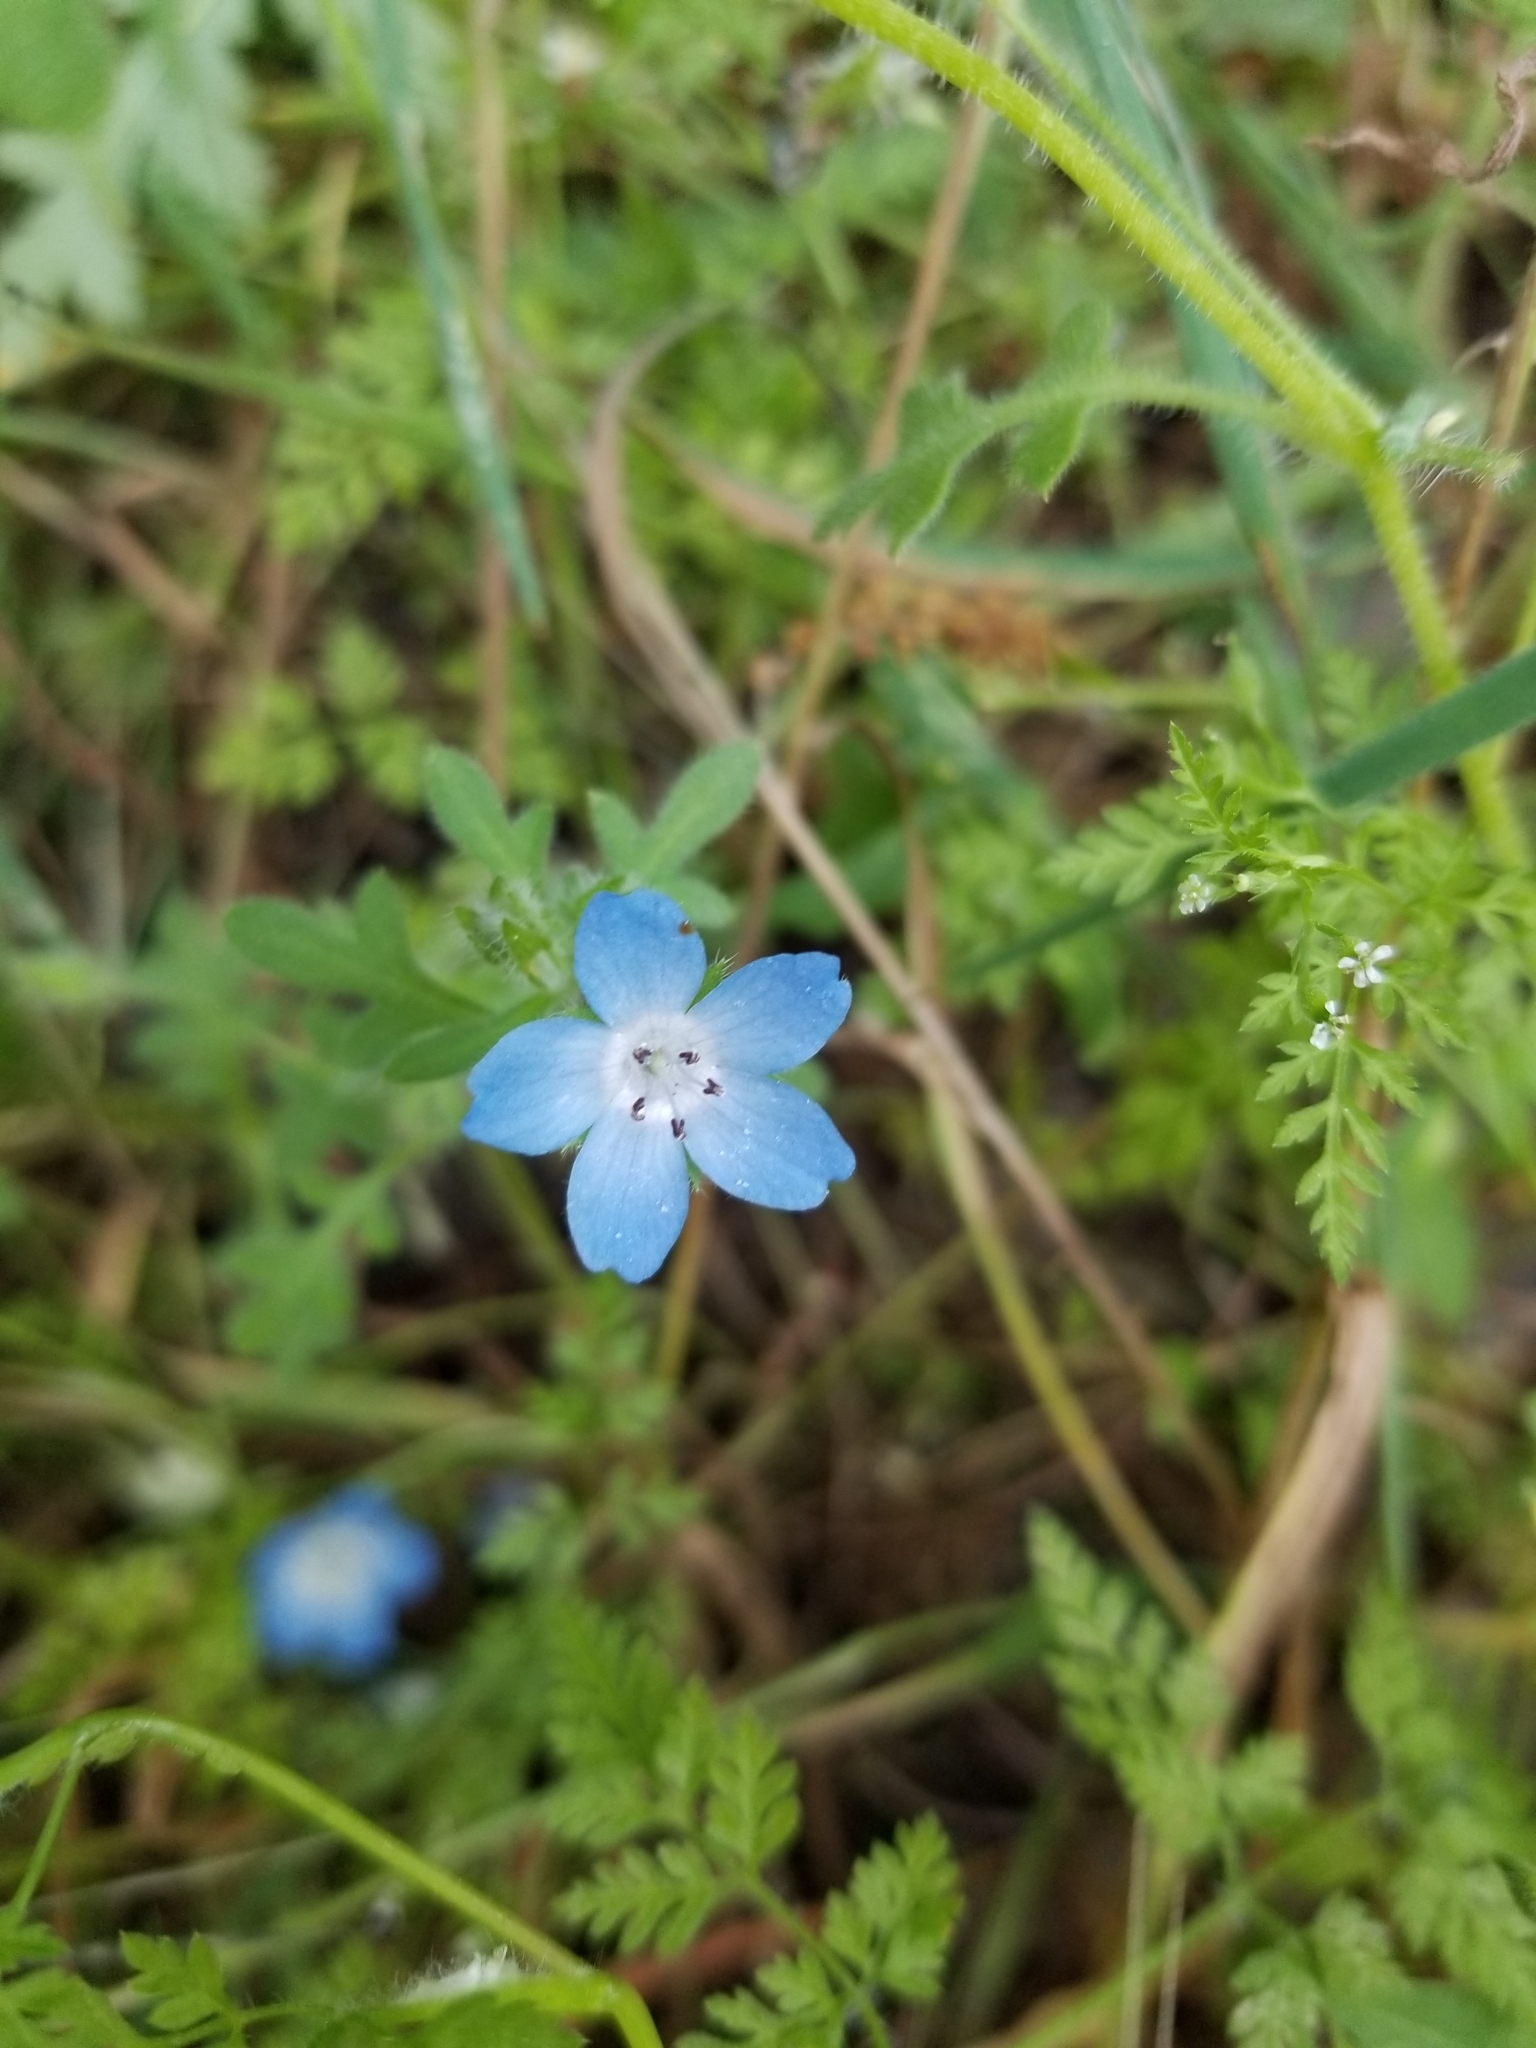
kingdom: Plantae
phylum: Tracheophyta
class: Magnoliopsida
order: Boraginales
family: Hydrophyllaceae
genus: Nemophila
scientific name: Nemophila menziesii
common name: Baby's-blue-eyes
